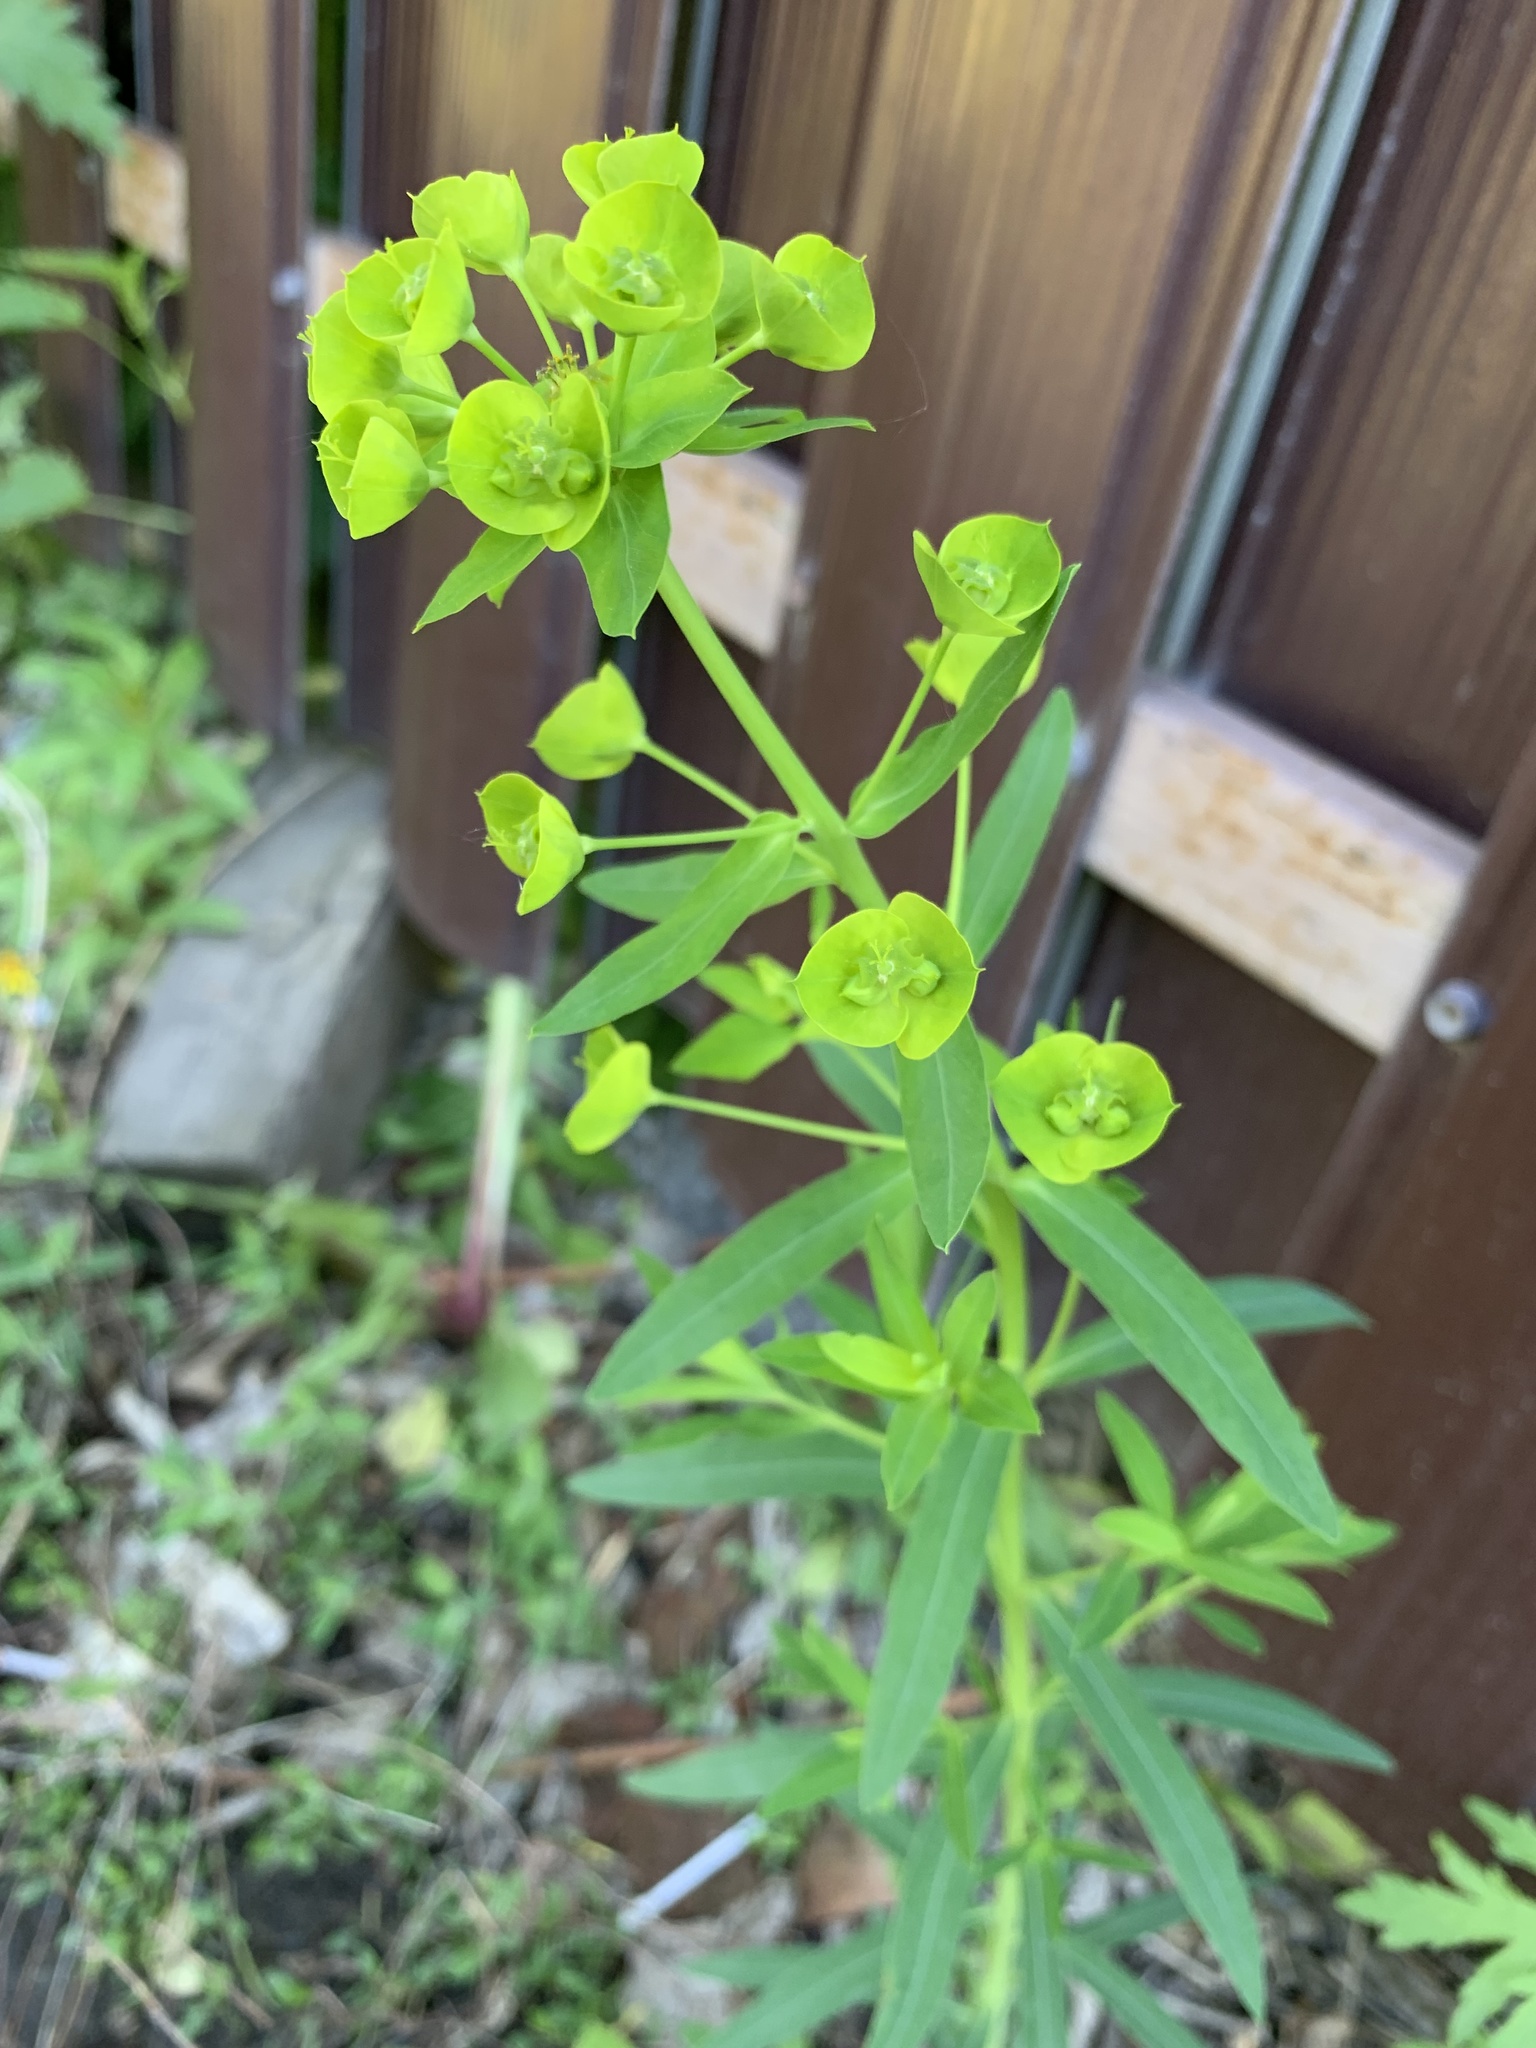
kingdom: Plantae
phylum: Tracheophyta
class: Magnoliopsida
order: Malpighiales
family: Euphorbiaceae
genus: Euphorbia
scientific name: Euphorbia virgata
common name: Leafy spurge
